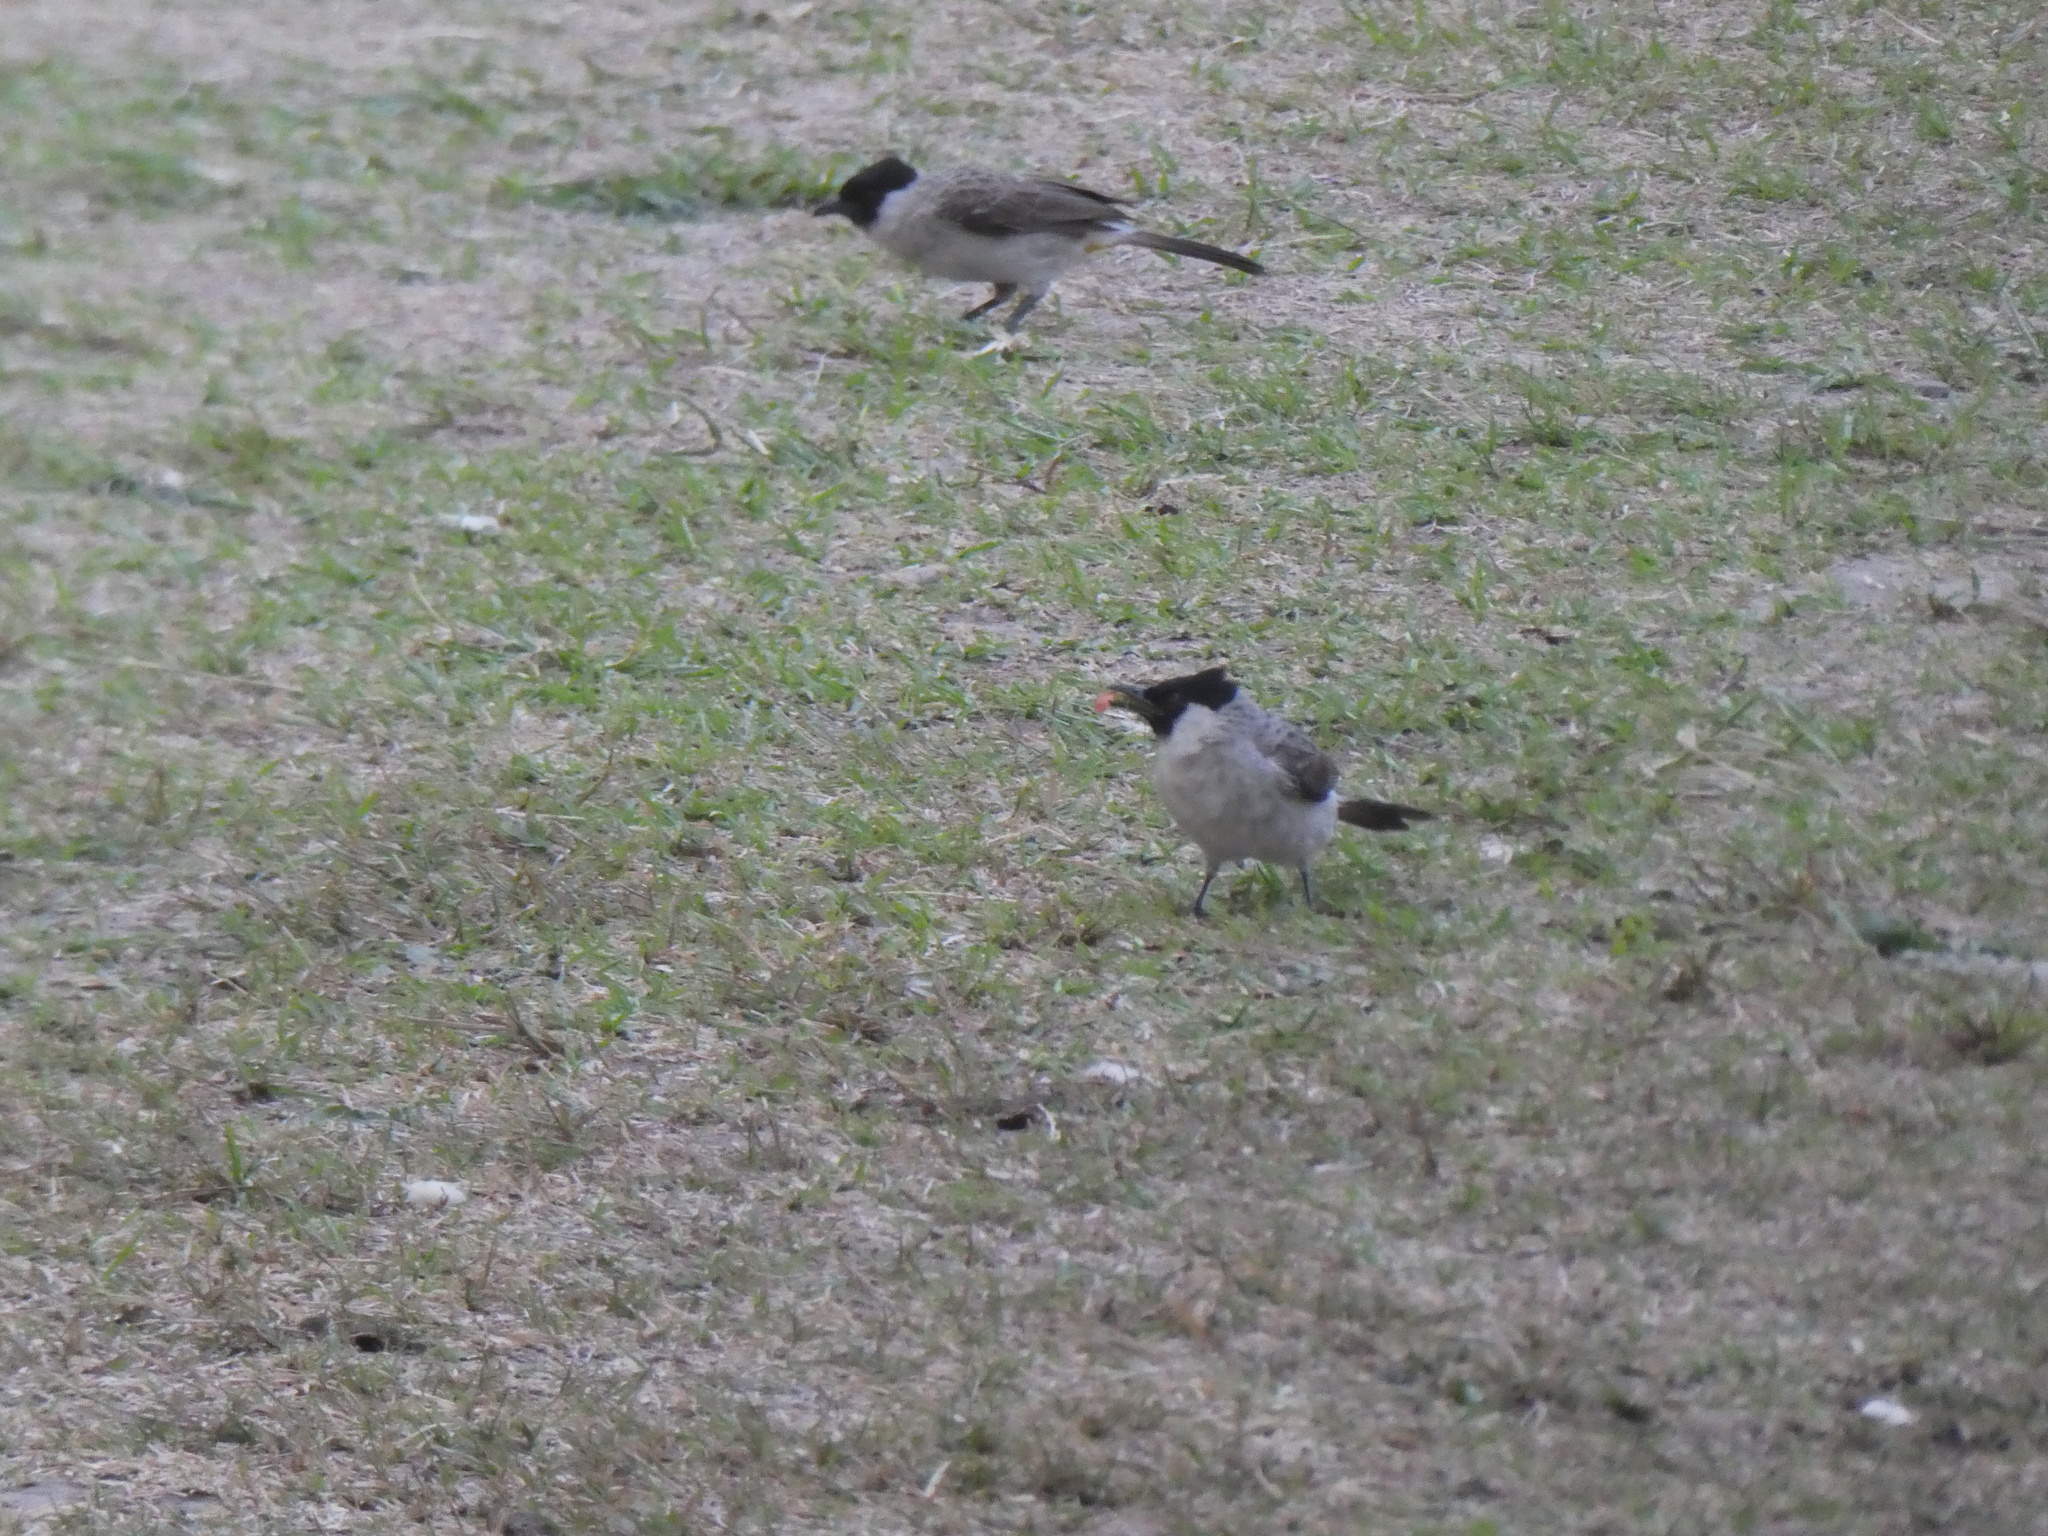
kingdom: Animalia
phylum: Chordata
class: Aves
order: Passeriformes
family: Pycnonotidae
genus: Pycnonotus
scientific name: Pycnonotus aurigaster
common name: Sooty-headed bulbul
